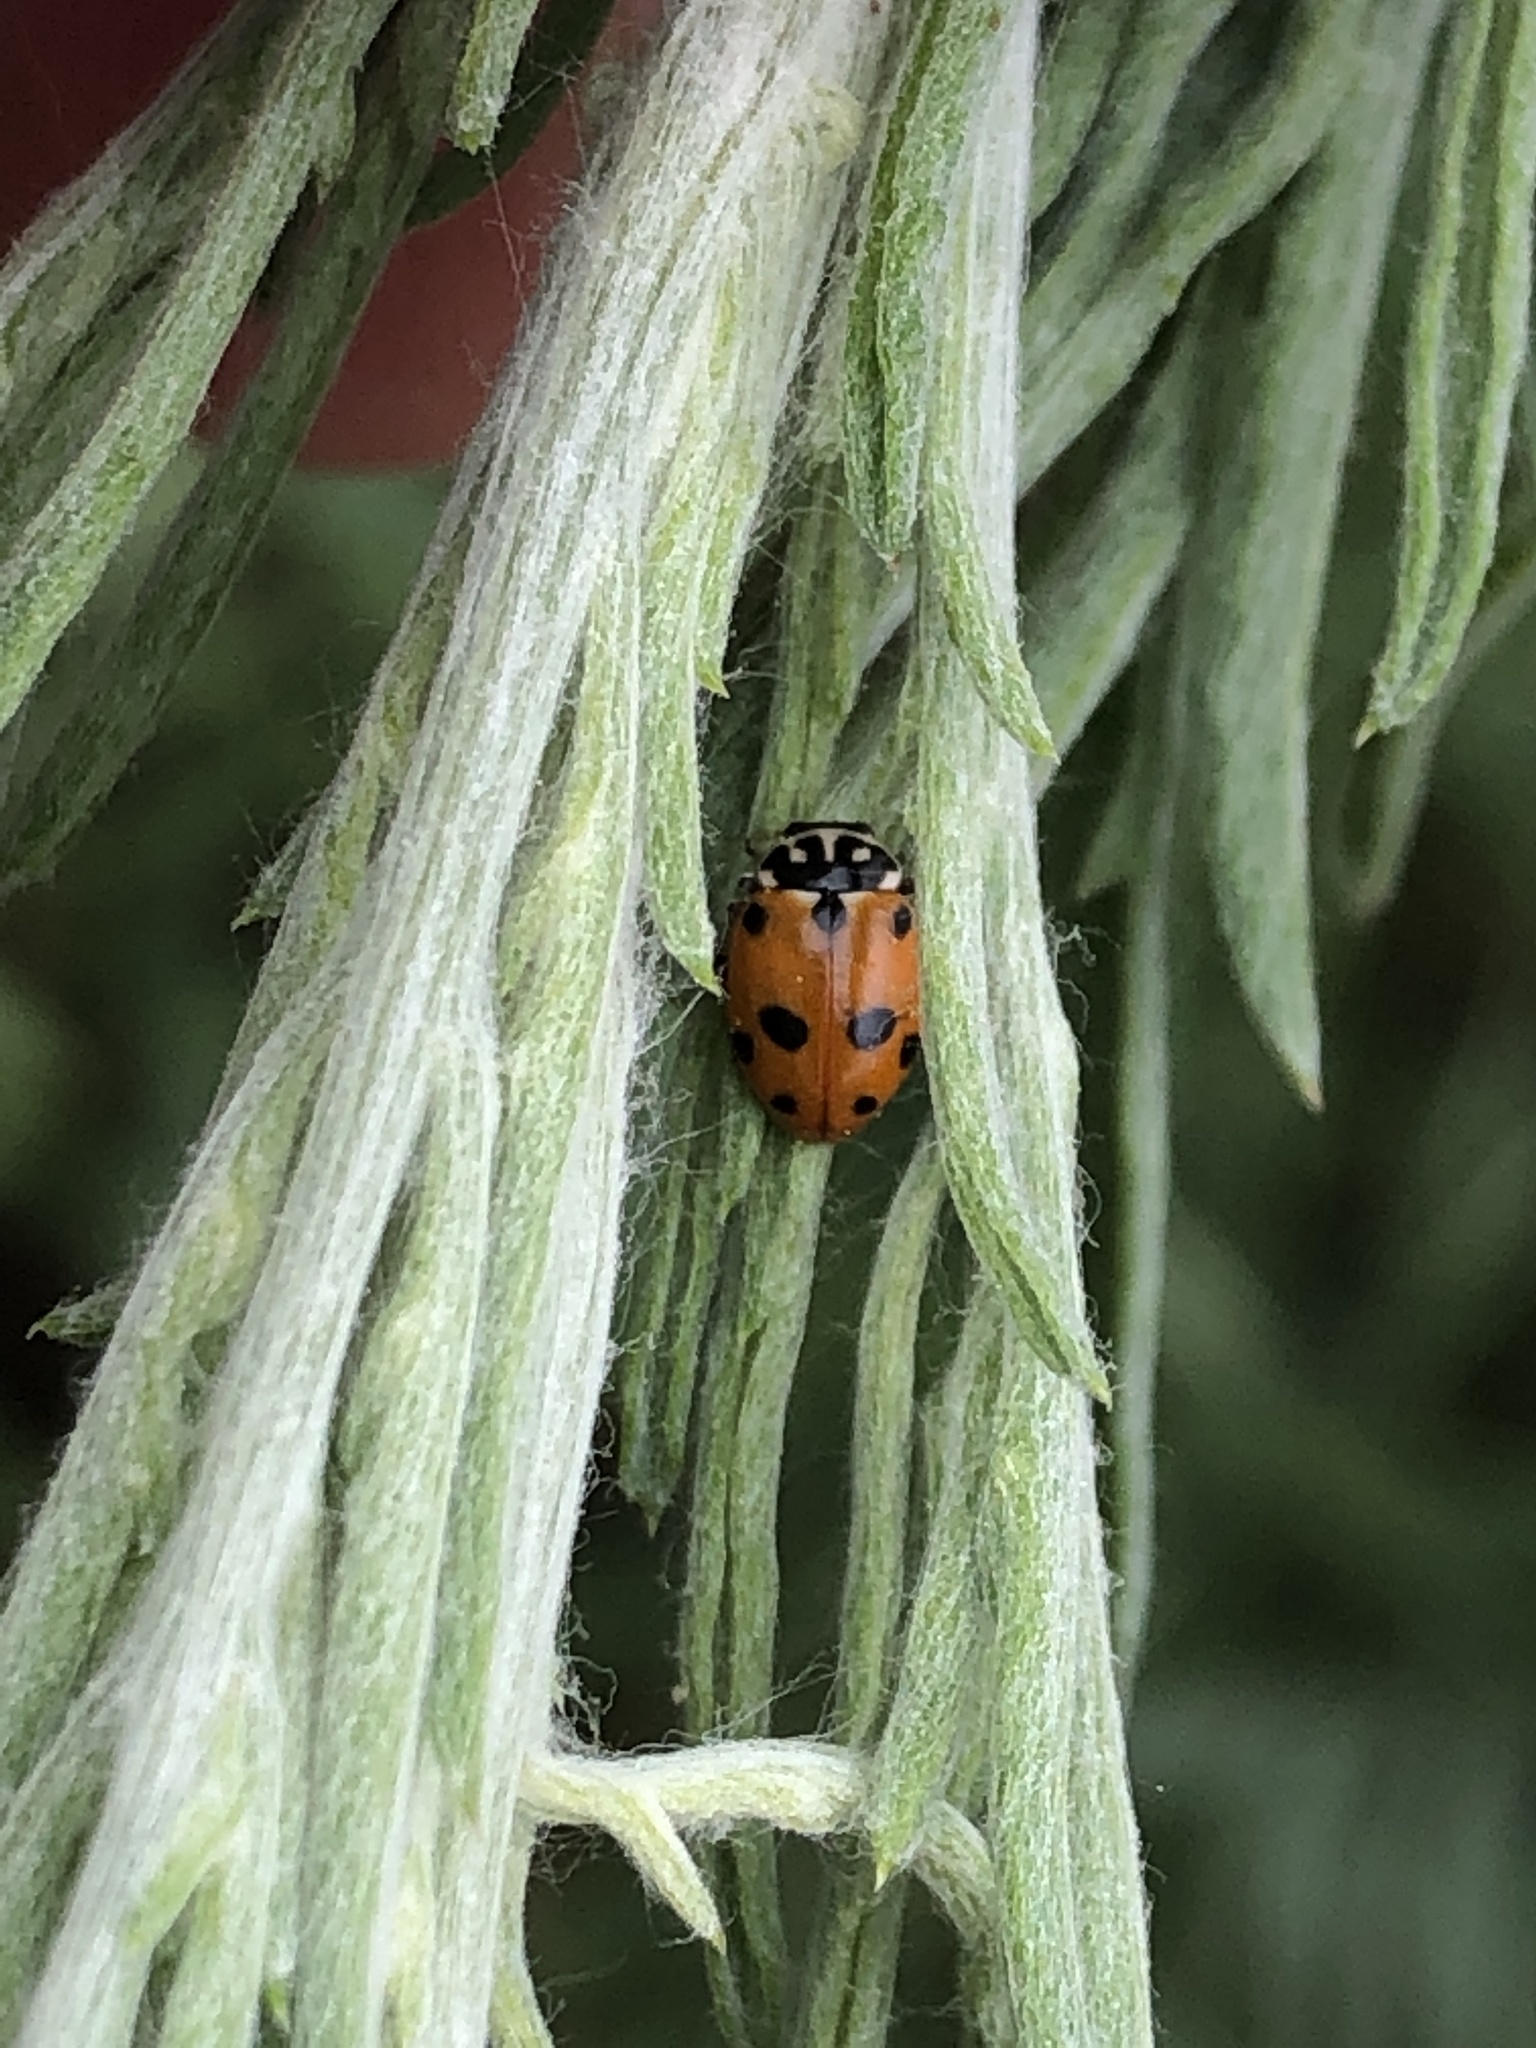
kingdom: Animalia
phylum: Arthropoda
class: Insecta
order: Coleoptera
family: Coccinellidae
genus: Hippodamia
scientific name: Hippodamia variegata
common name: Ladybird beetle
